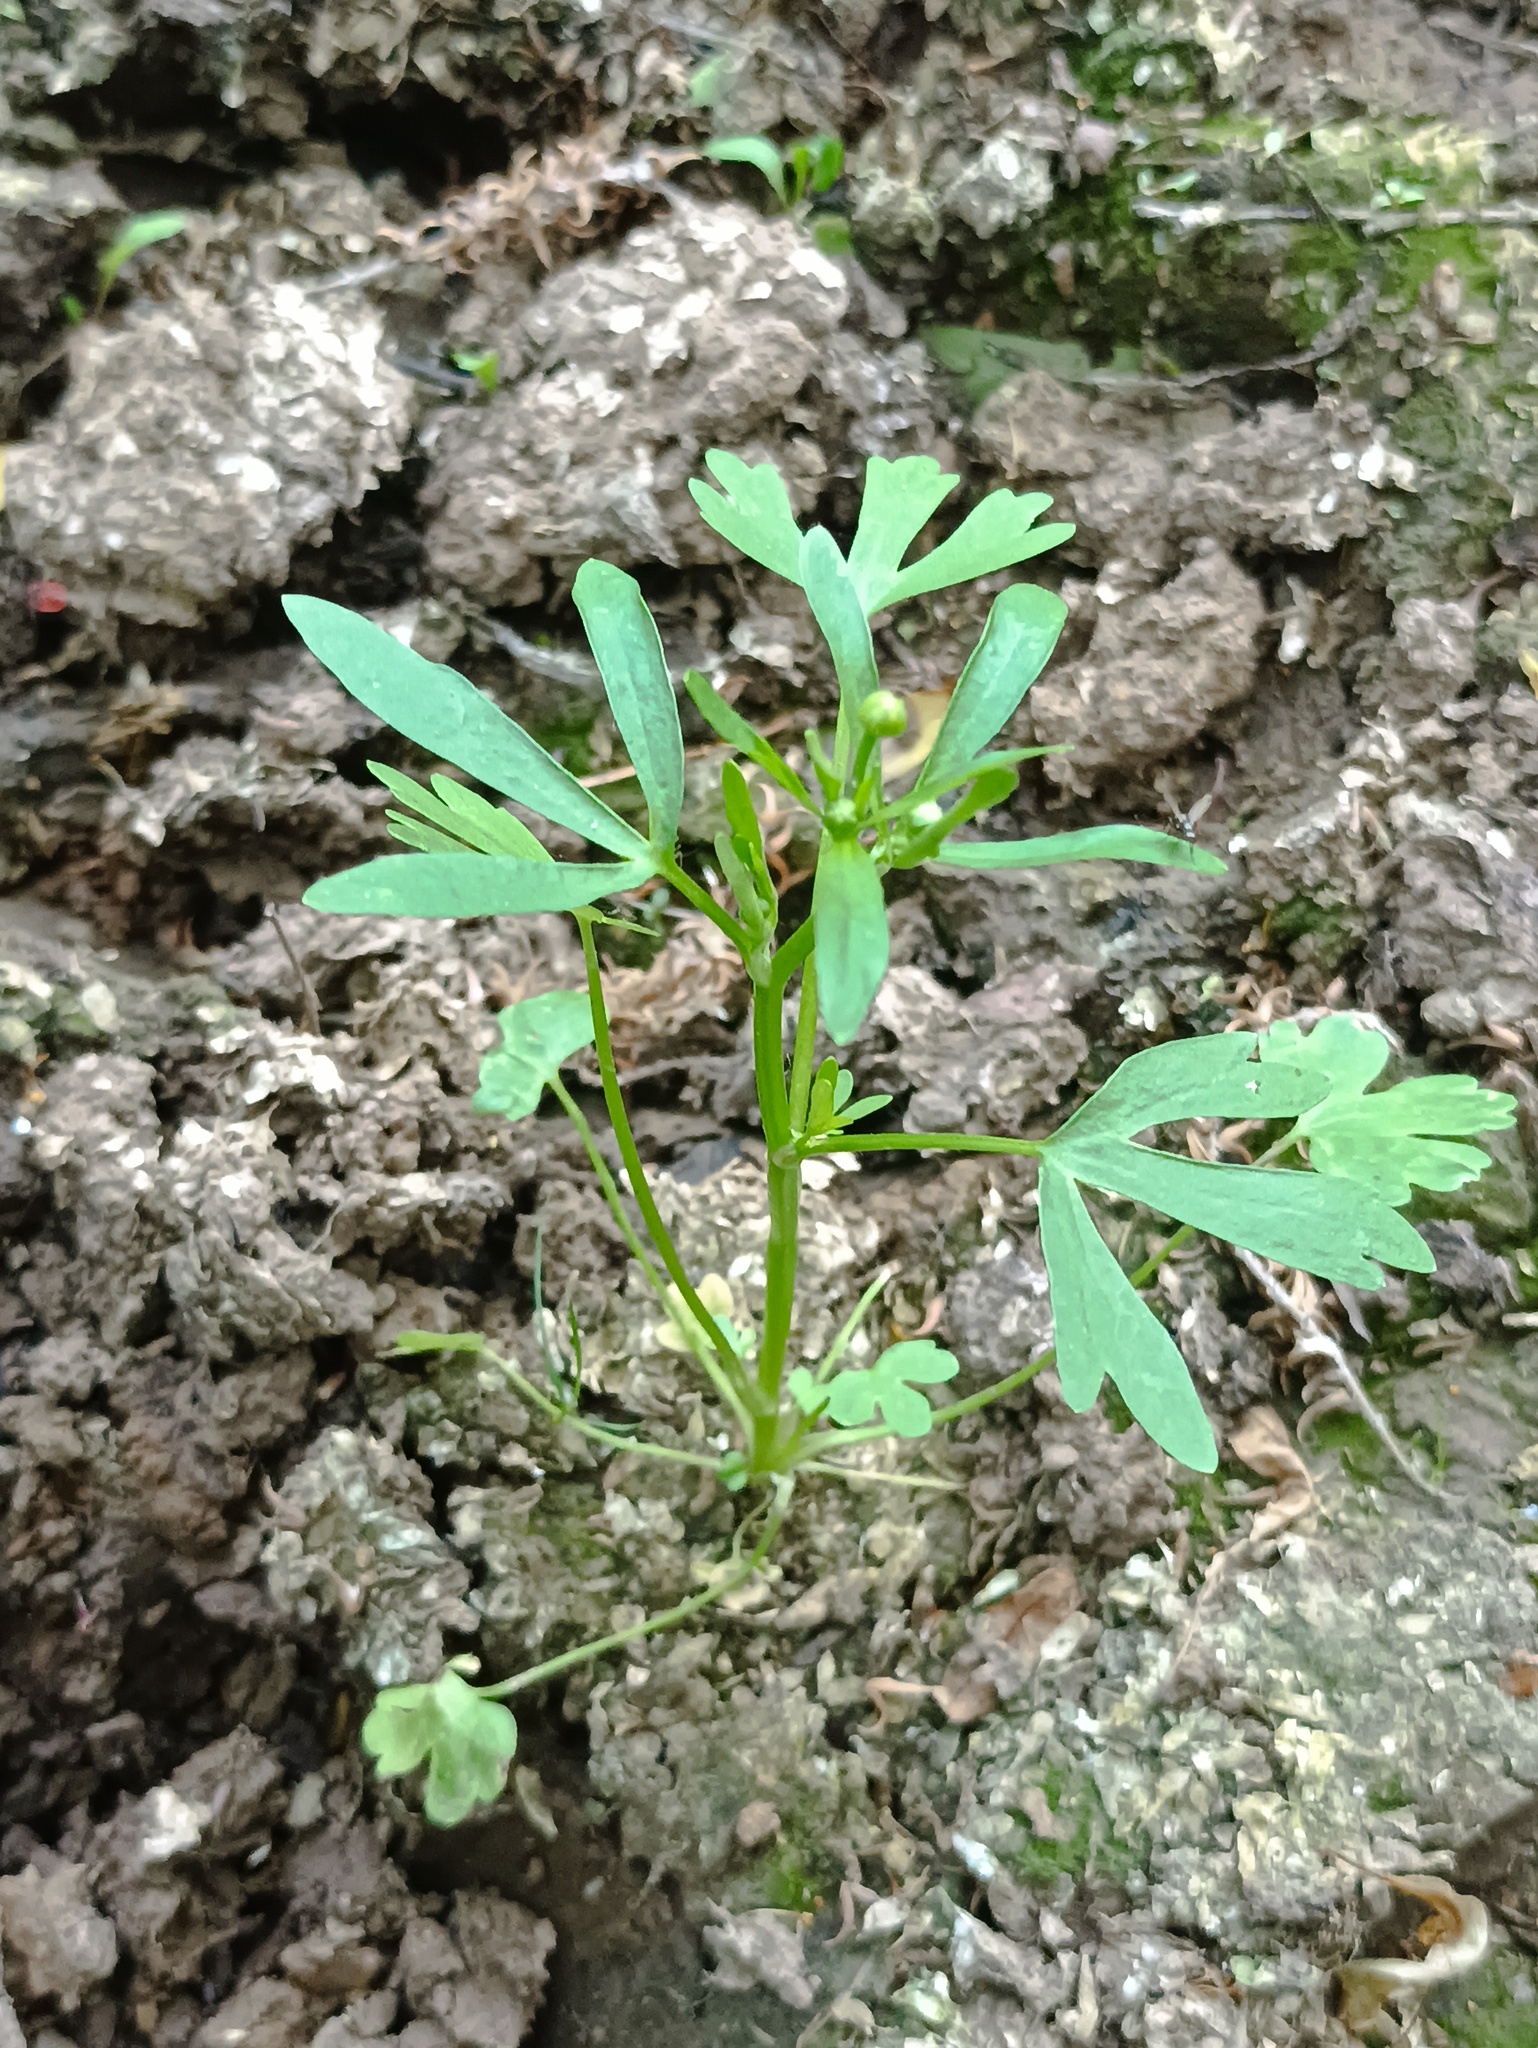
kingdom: Plantae
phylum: Tracheophyta
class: Magnoliopsida
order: Ranunculales
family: Ranunculaceae
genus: Ranunculus
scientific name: Ranunculus sceleratus
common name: Celery-leaved buttercup
